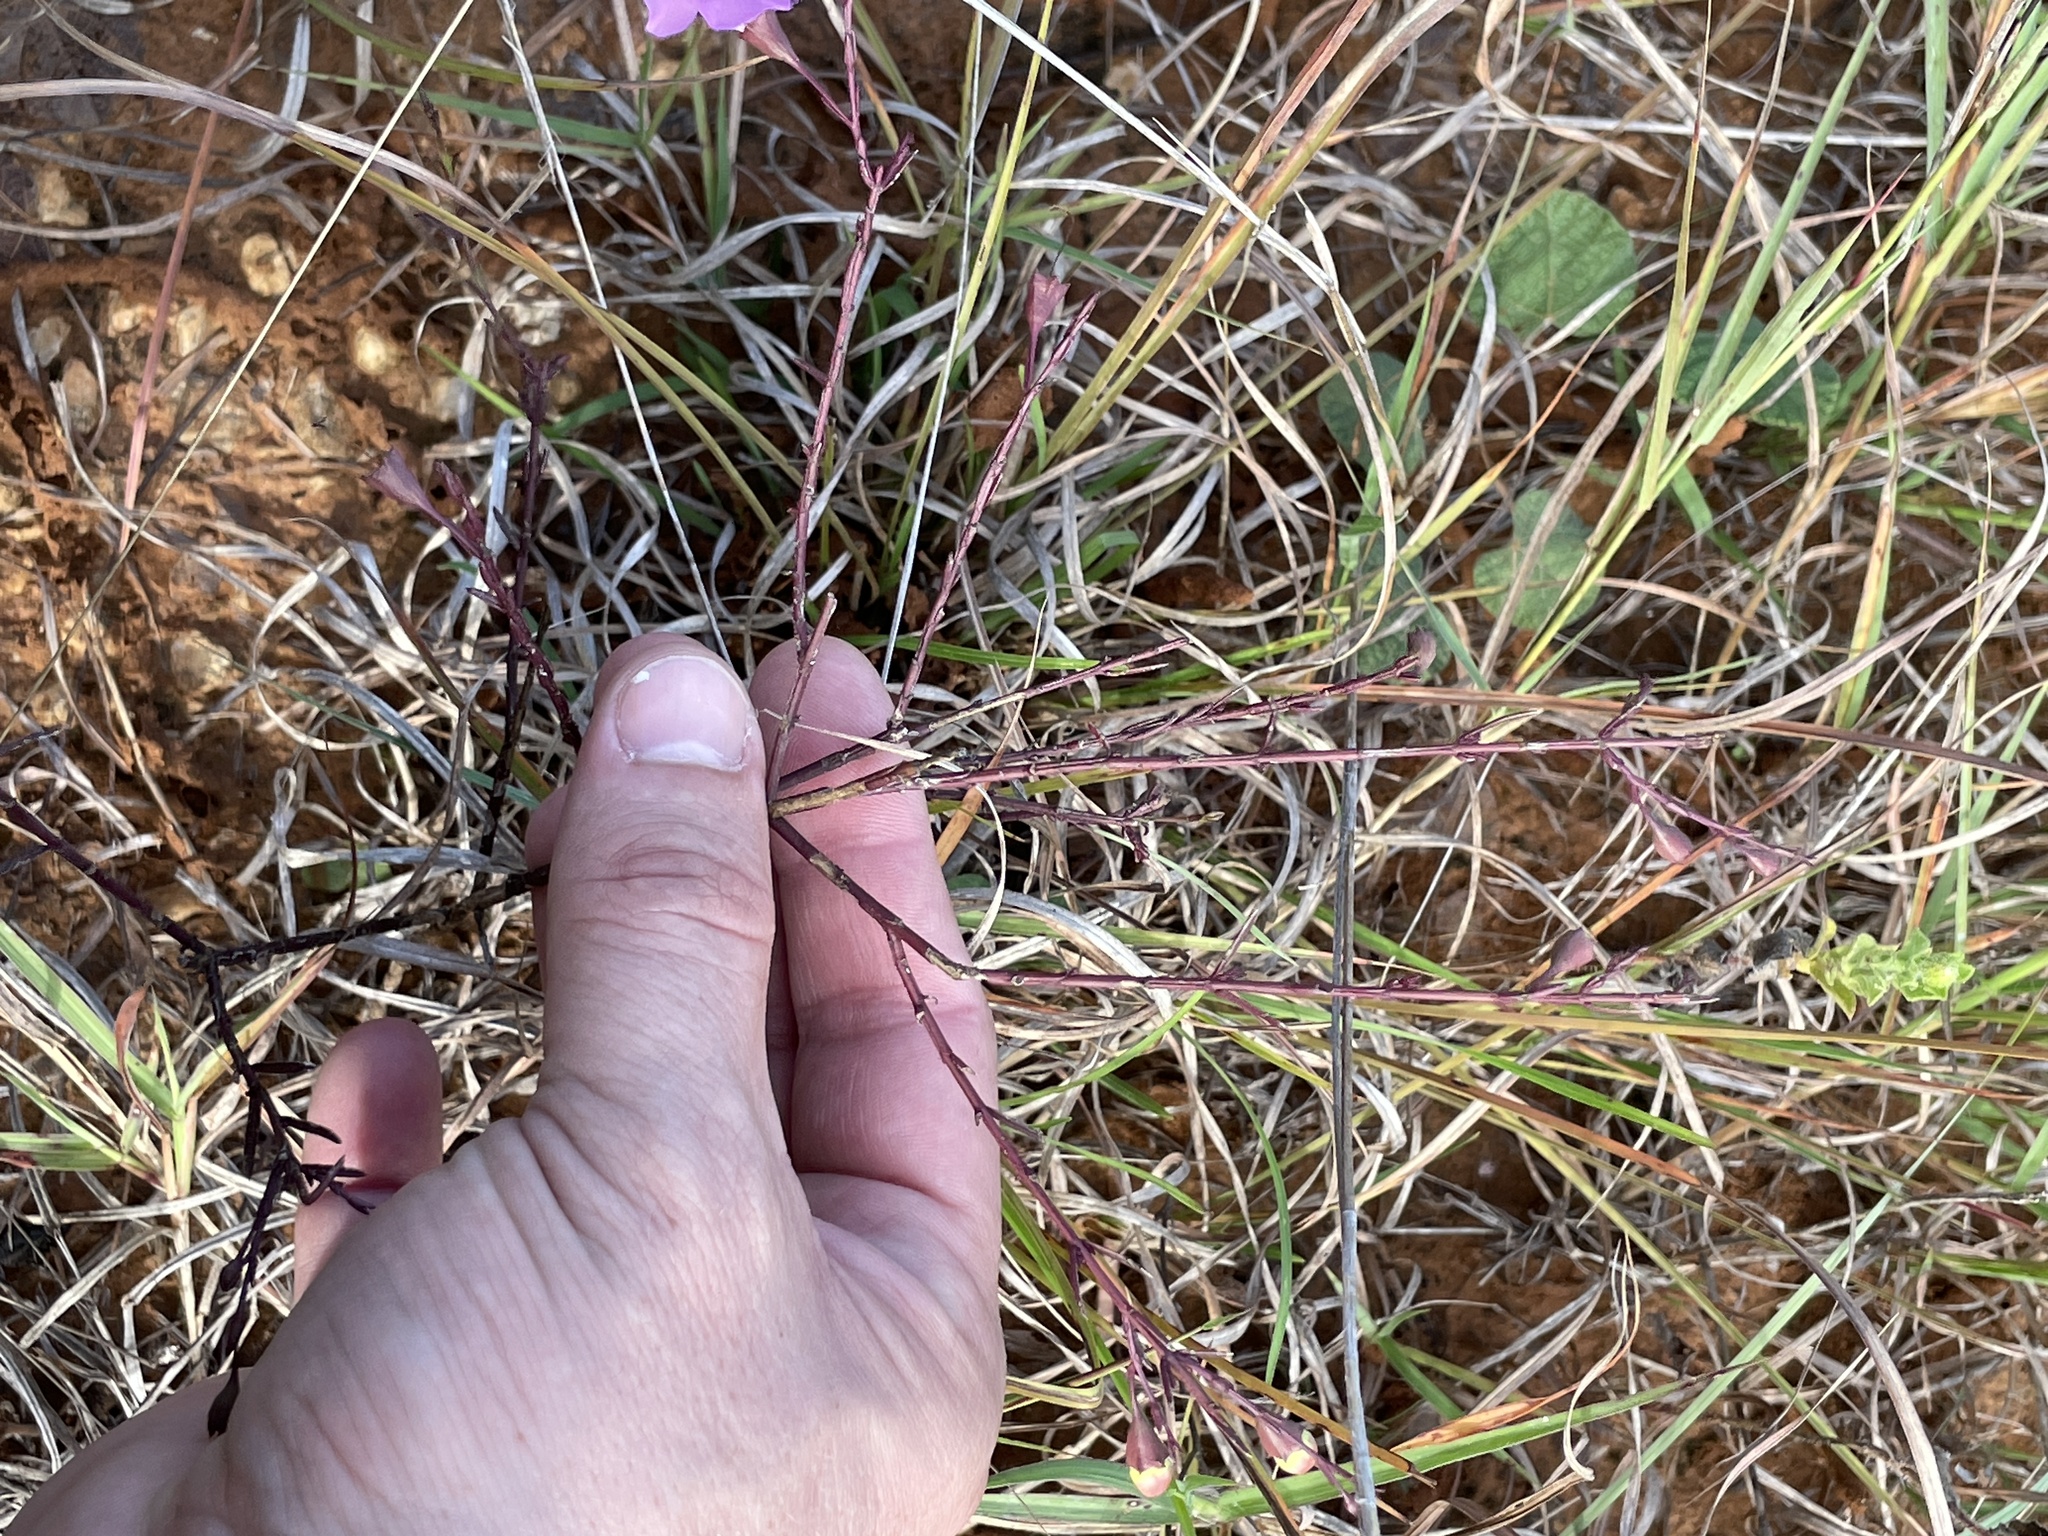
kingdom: Plantae
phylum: Tracheophyta
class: Magnoliopsida
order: Lamiales
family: Orobanchaceae
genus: Agalinis
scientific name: Agalinis strictifolia
